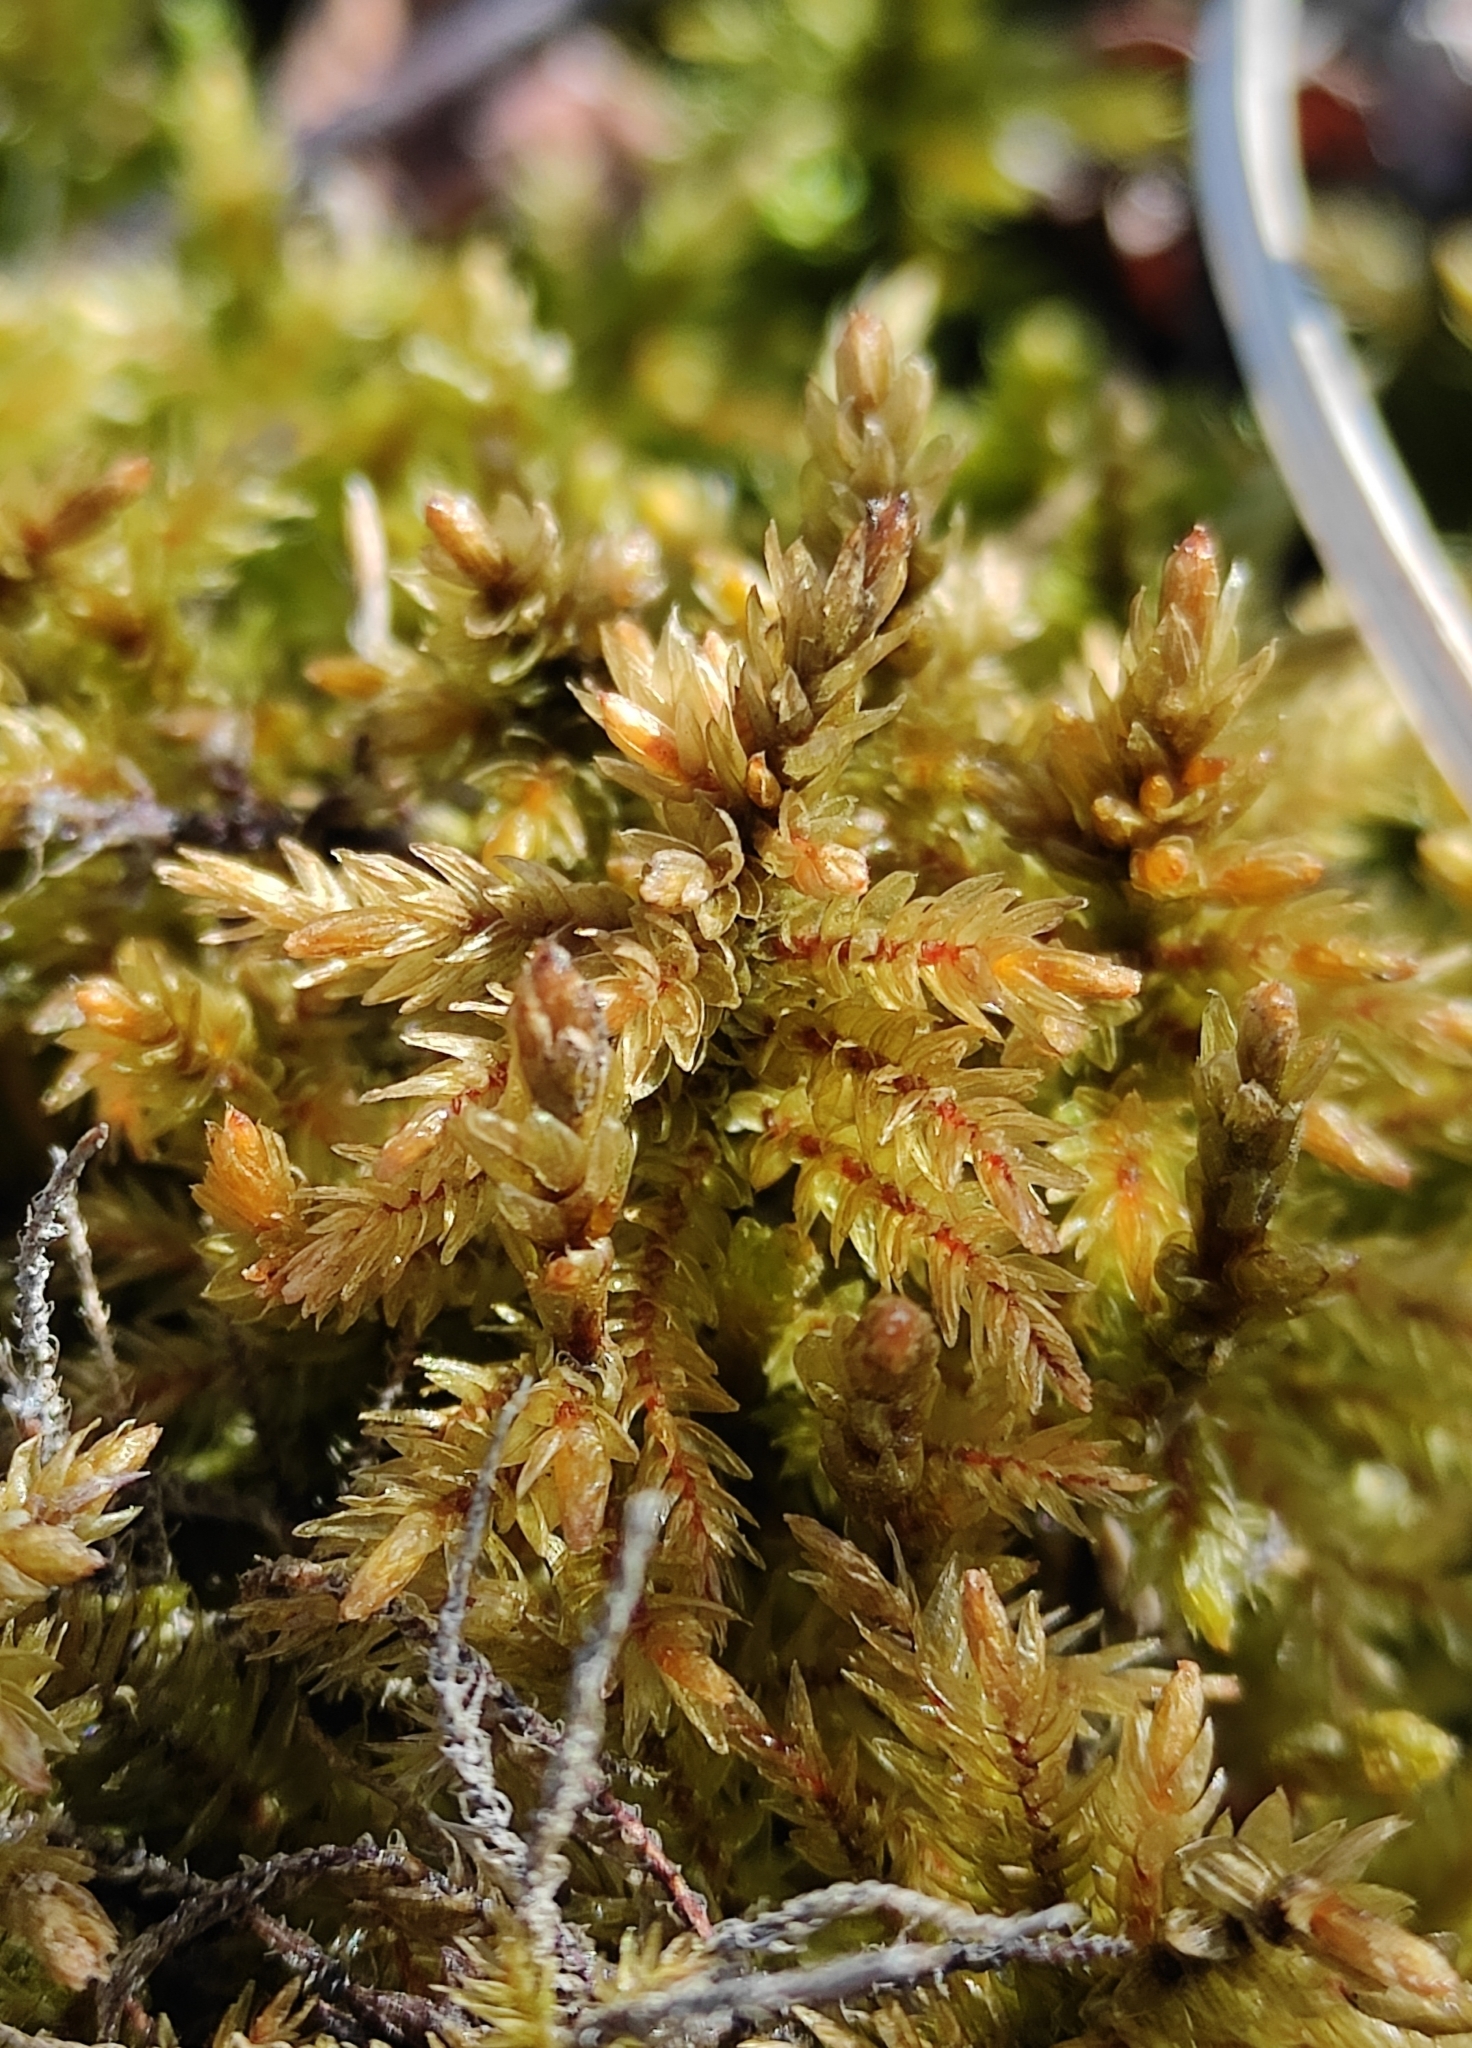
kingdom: Plantae
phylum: Bryophyta
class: Bryopsida
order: Hypnales
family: Climaciaceae
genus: Climacium
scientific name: Climacium dendroides
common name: Northern tree moss
